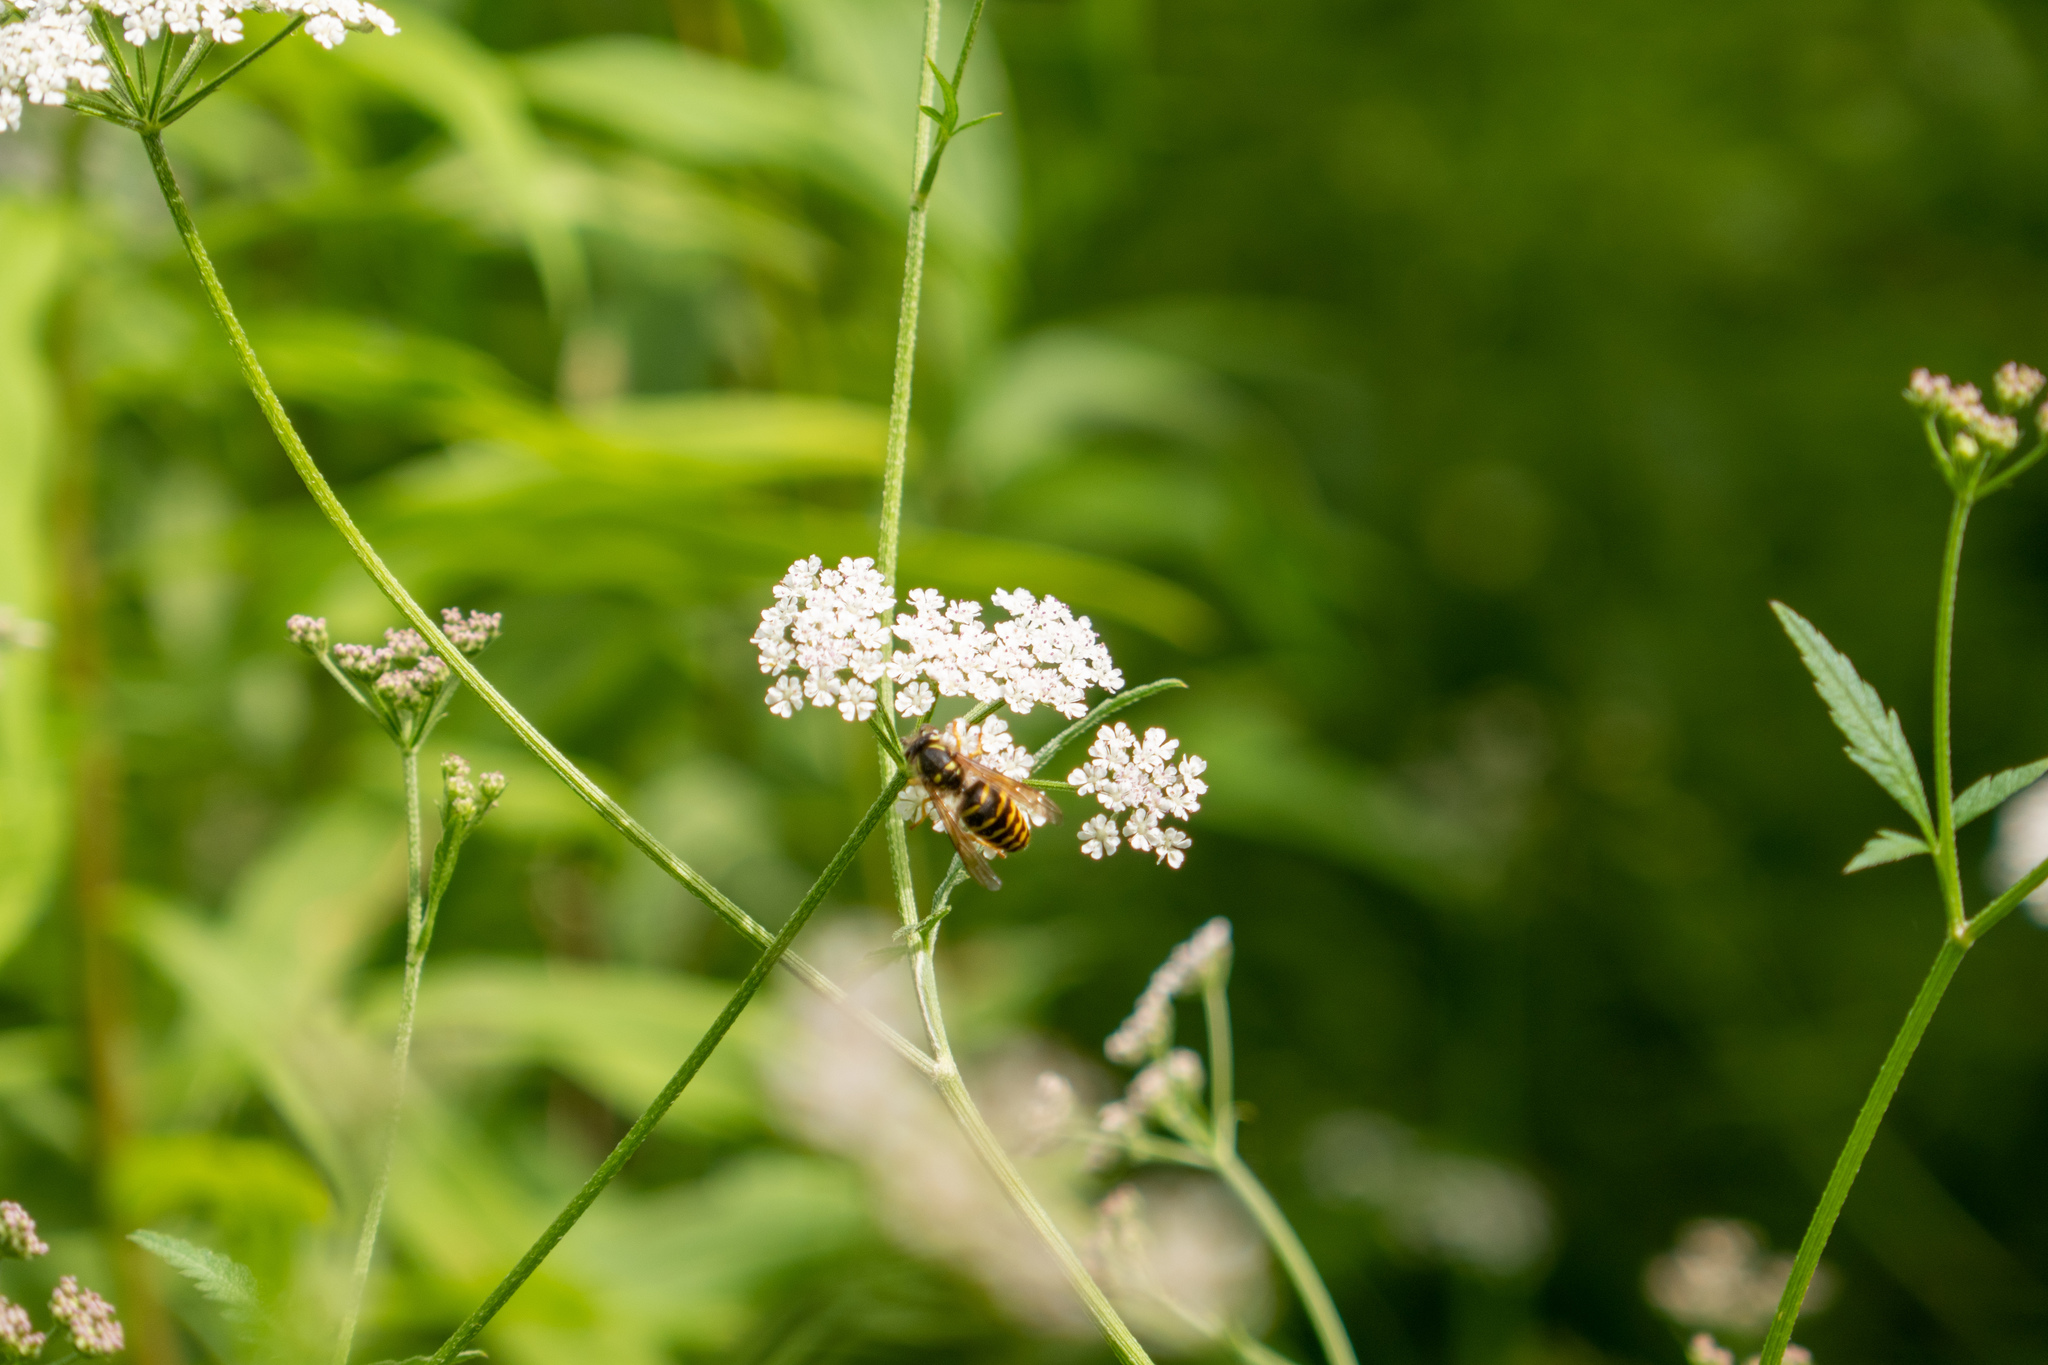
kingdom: Animalia
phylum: Arthropoda
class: Insecta
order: Hymenoptera
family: Vespidae
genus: Dolichovespula
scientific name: Dolichovespula arenaria
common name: Aerial yellowjacket
